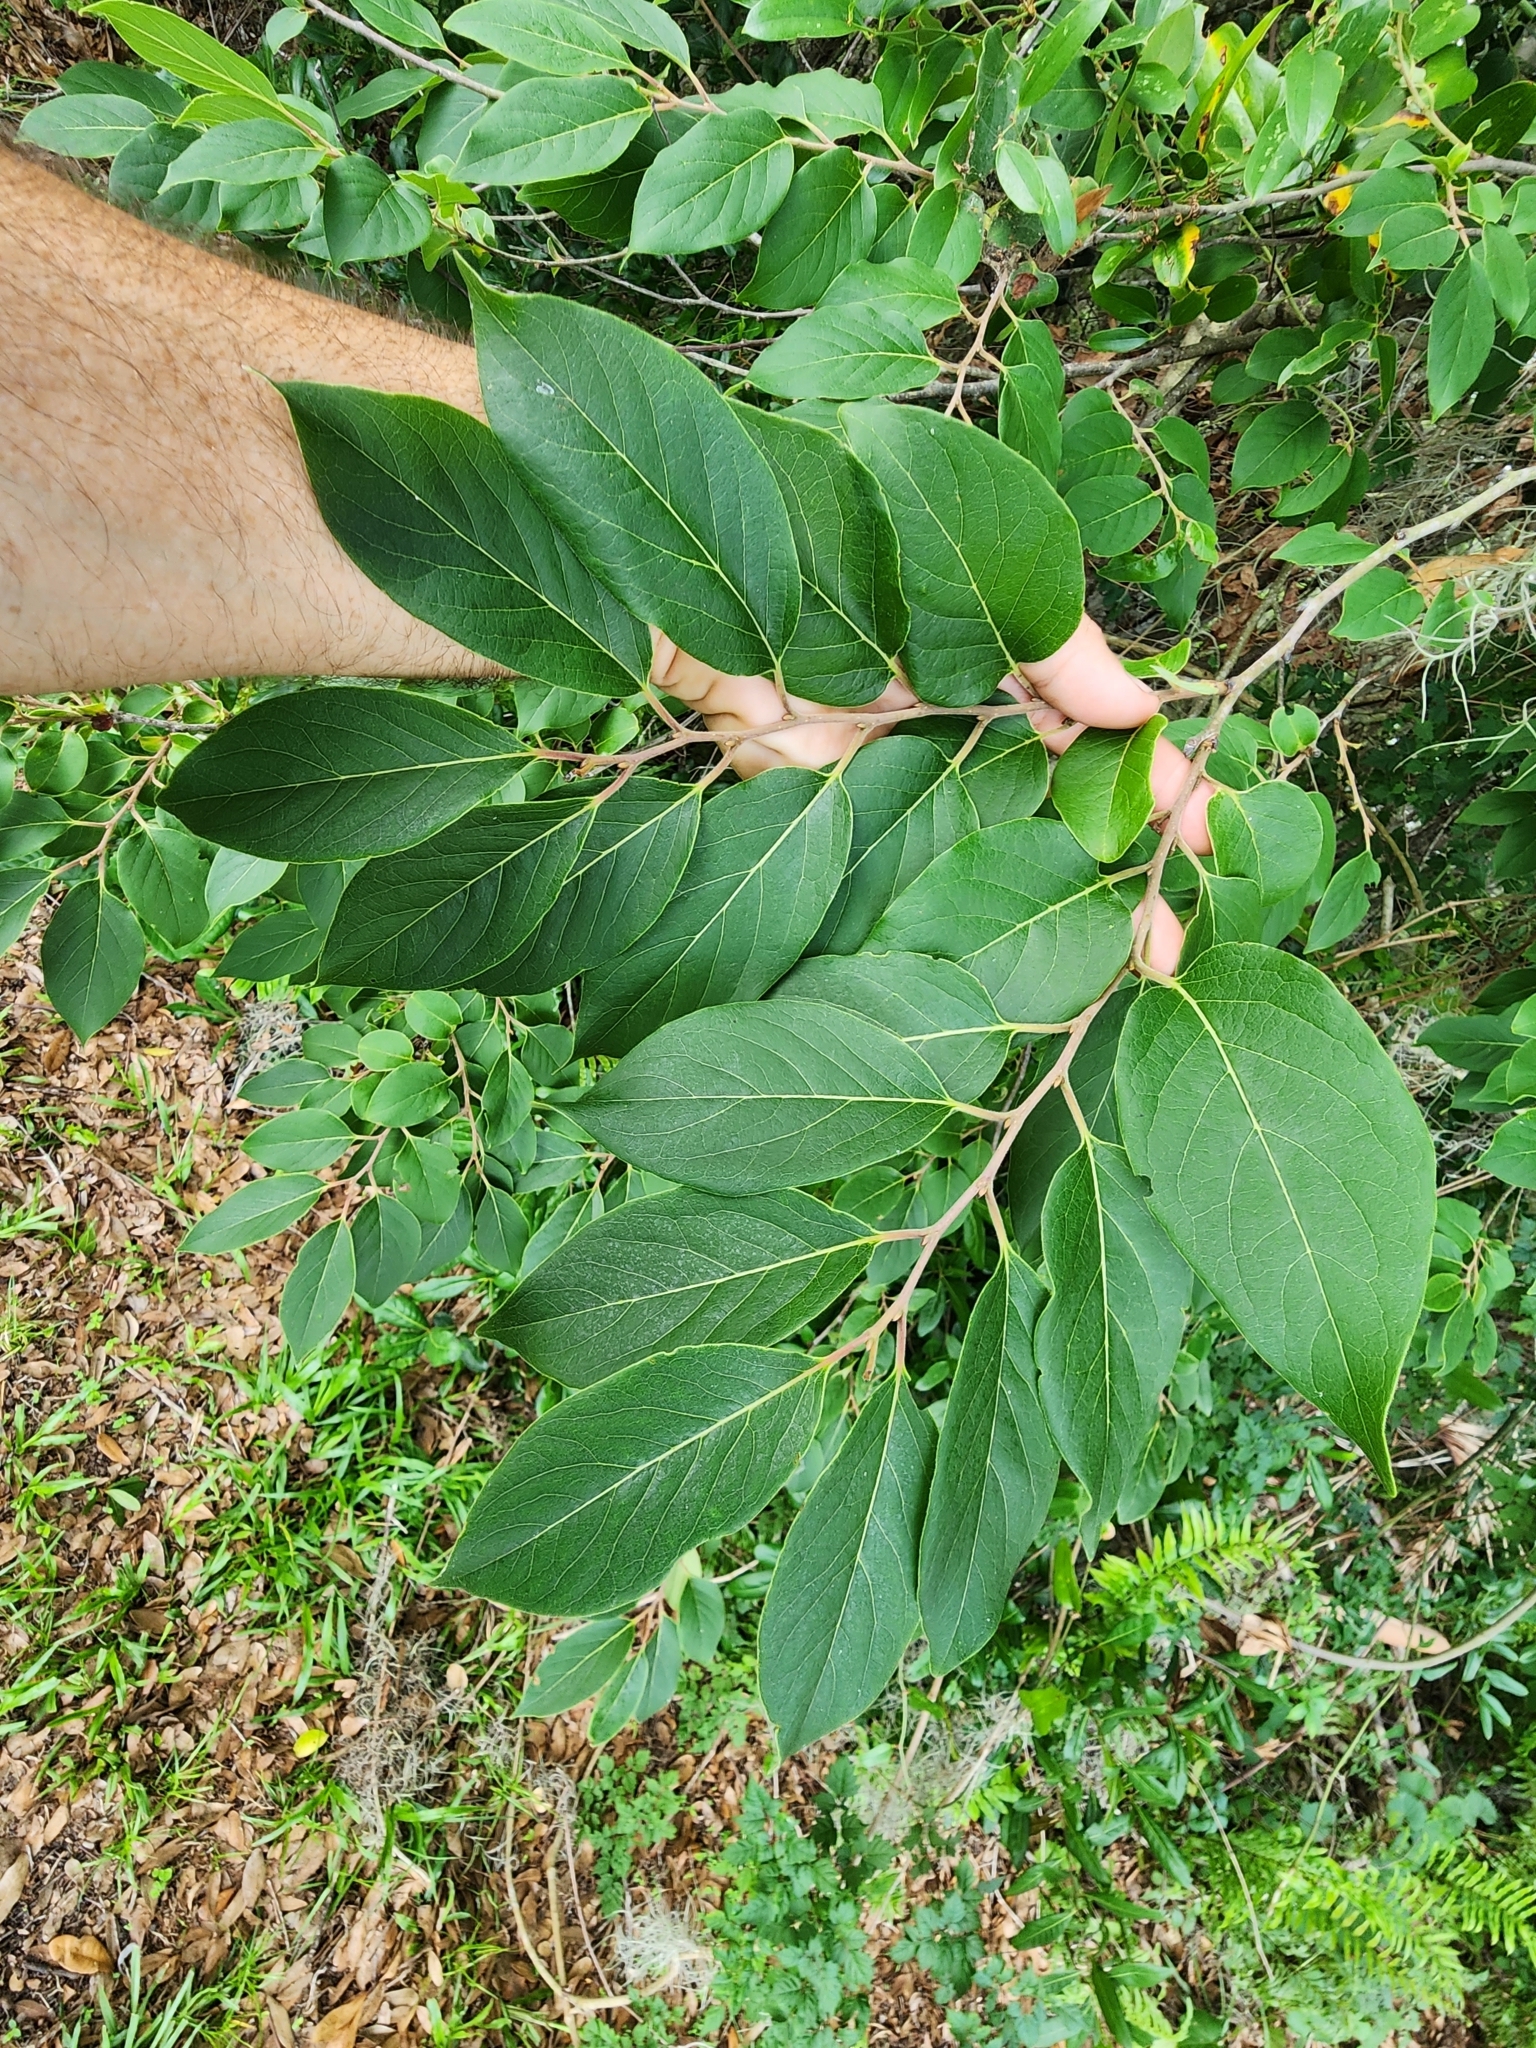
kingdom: Plantae
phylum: Tracheophyta
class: Magnoliopsida
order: Ericales
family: Ebenaceae
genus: Diospyros
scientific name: Diospyros virginiana
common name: Persimmon
